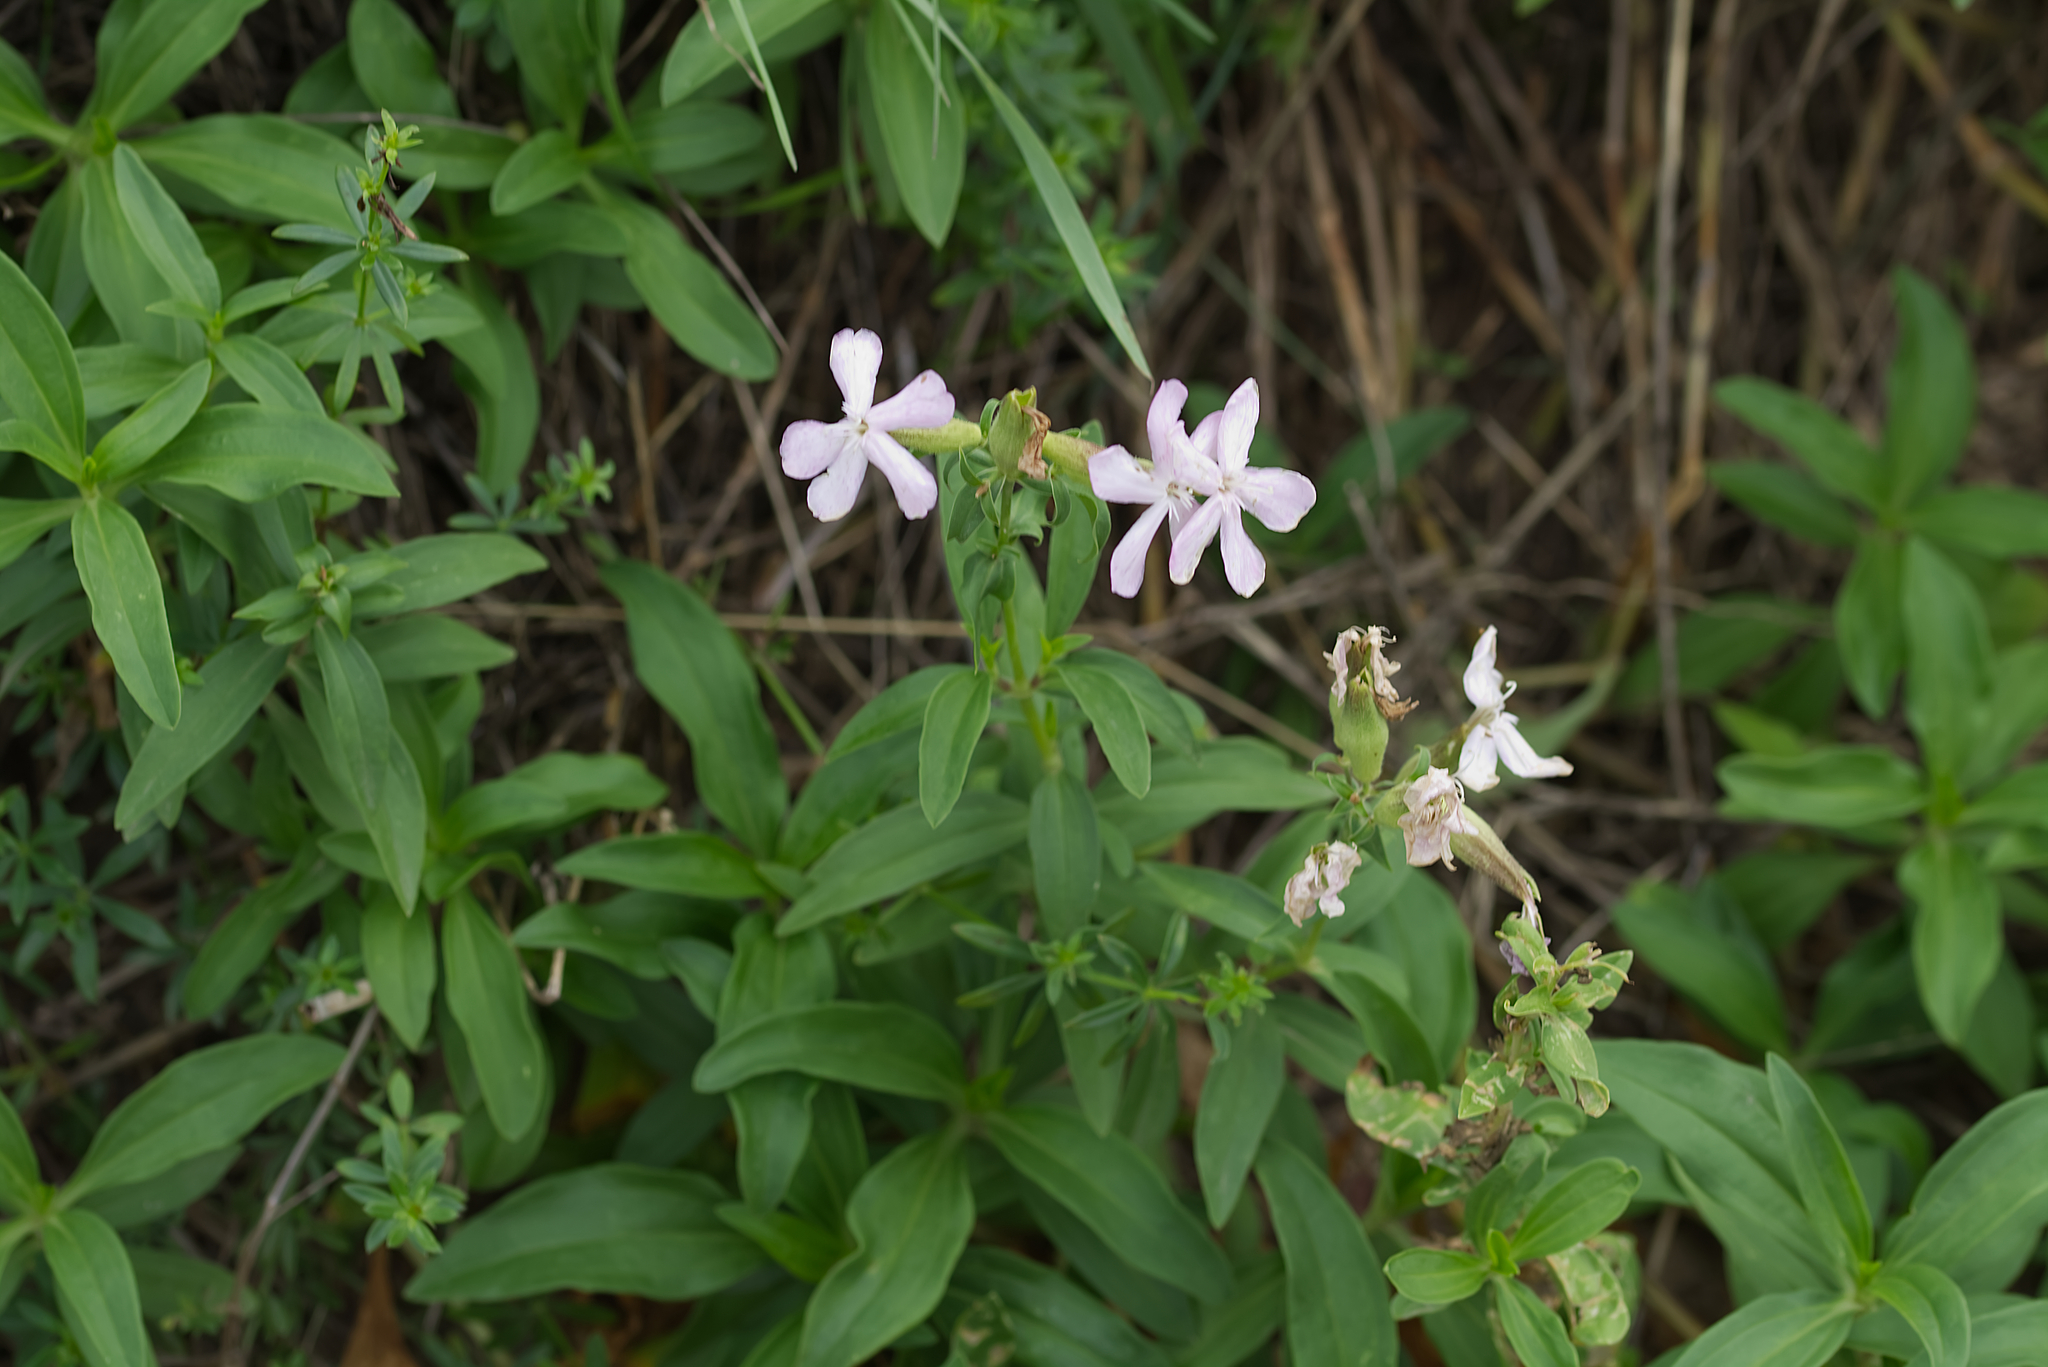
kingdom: Plantae
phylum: Tracheophyta
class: Magnoliopsida
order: Caryophyllales
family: Caryophyllaceae
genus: Saponaria
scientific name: Saponaria officinalis
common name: Soapwort
